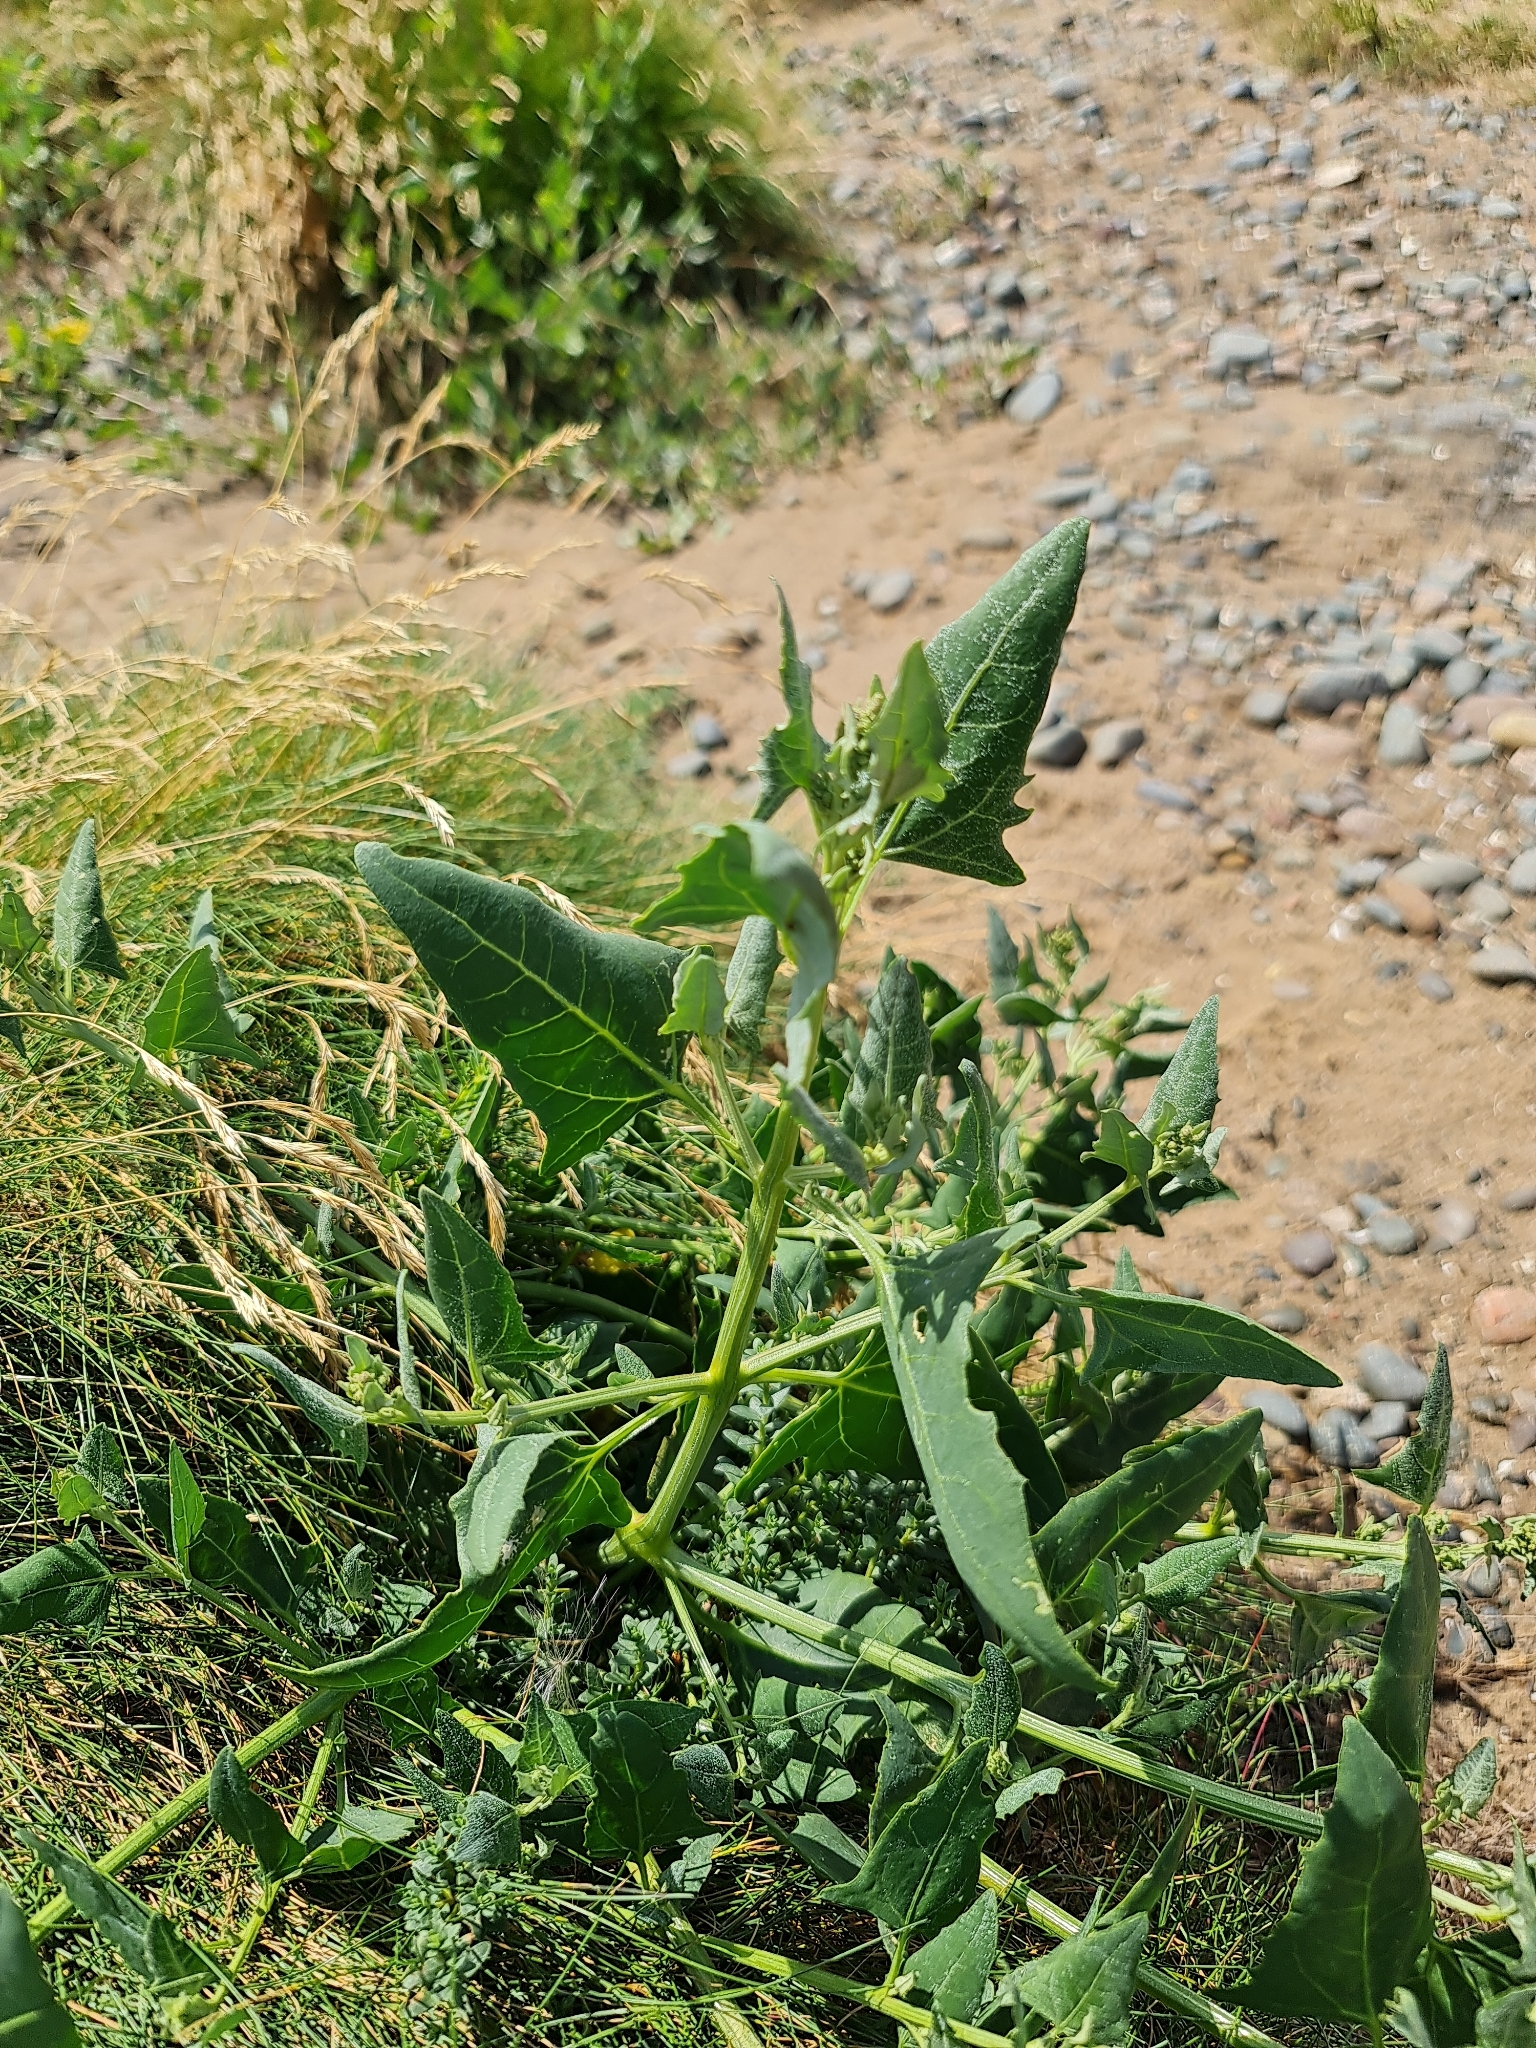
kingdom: Plantae
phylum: Tracheophyta
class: Magnoliopsida
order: Caryophyllales
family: Amaranthaceae
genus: Atriplex
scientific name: Atriplex prostrata
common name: Spear-leaved orache
